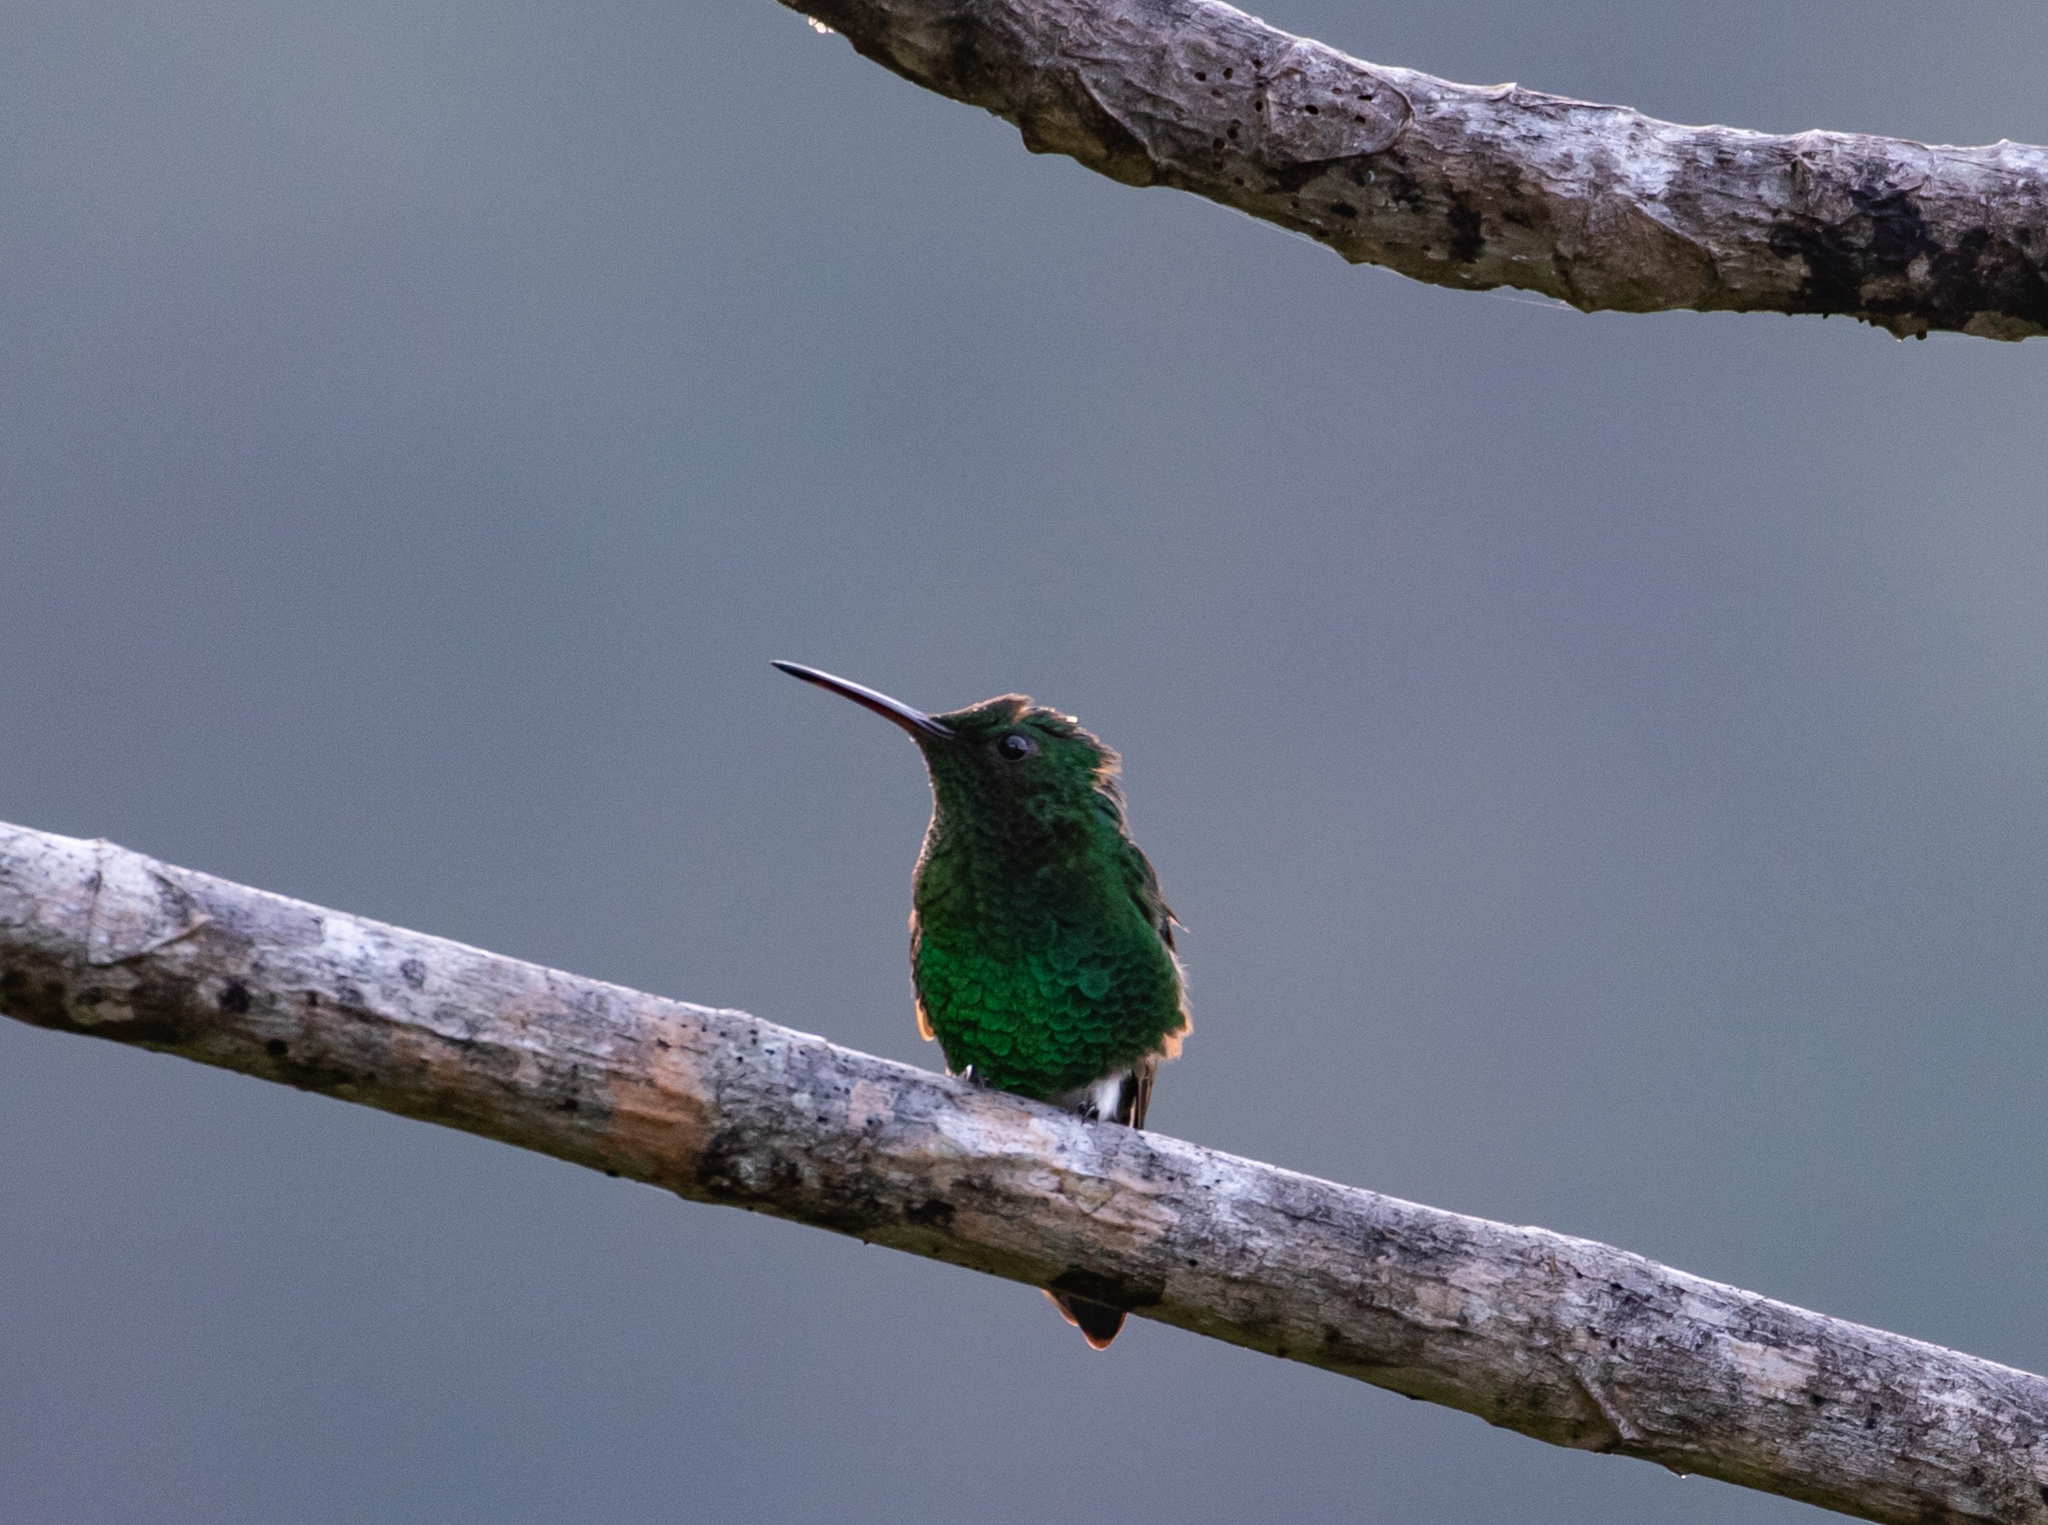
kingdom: Animalia
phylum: Chordata
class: Aves
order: Apodiformes
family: Trochilidae
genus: Saucerottia
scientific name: Saucerottia saucerottei
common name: Steely-vented hummingbird
